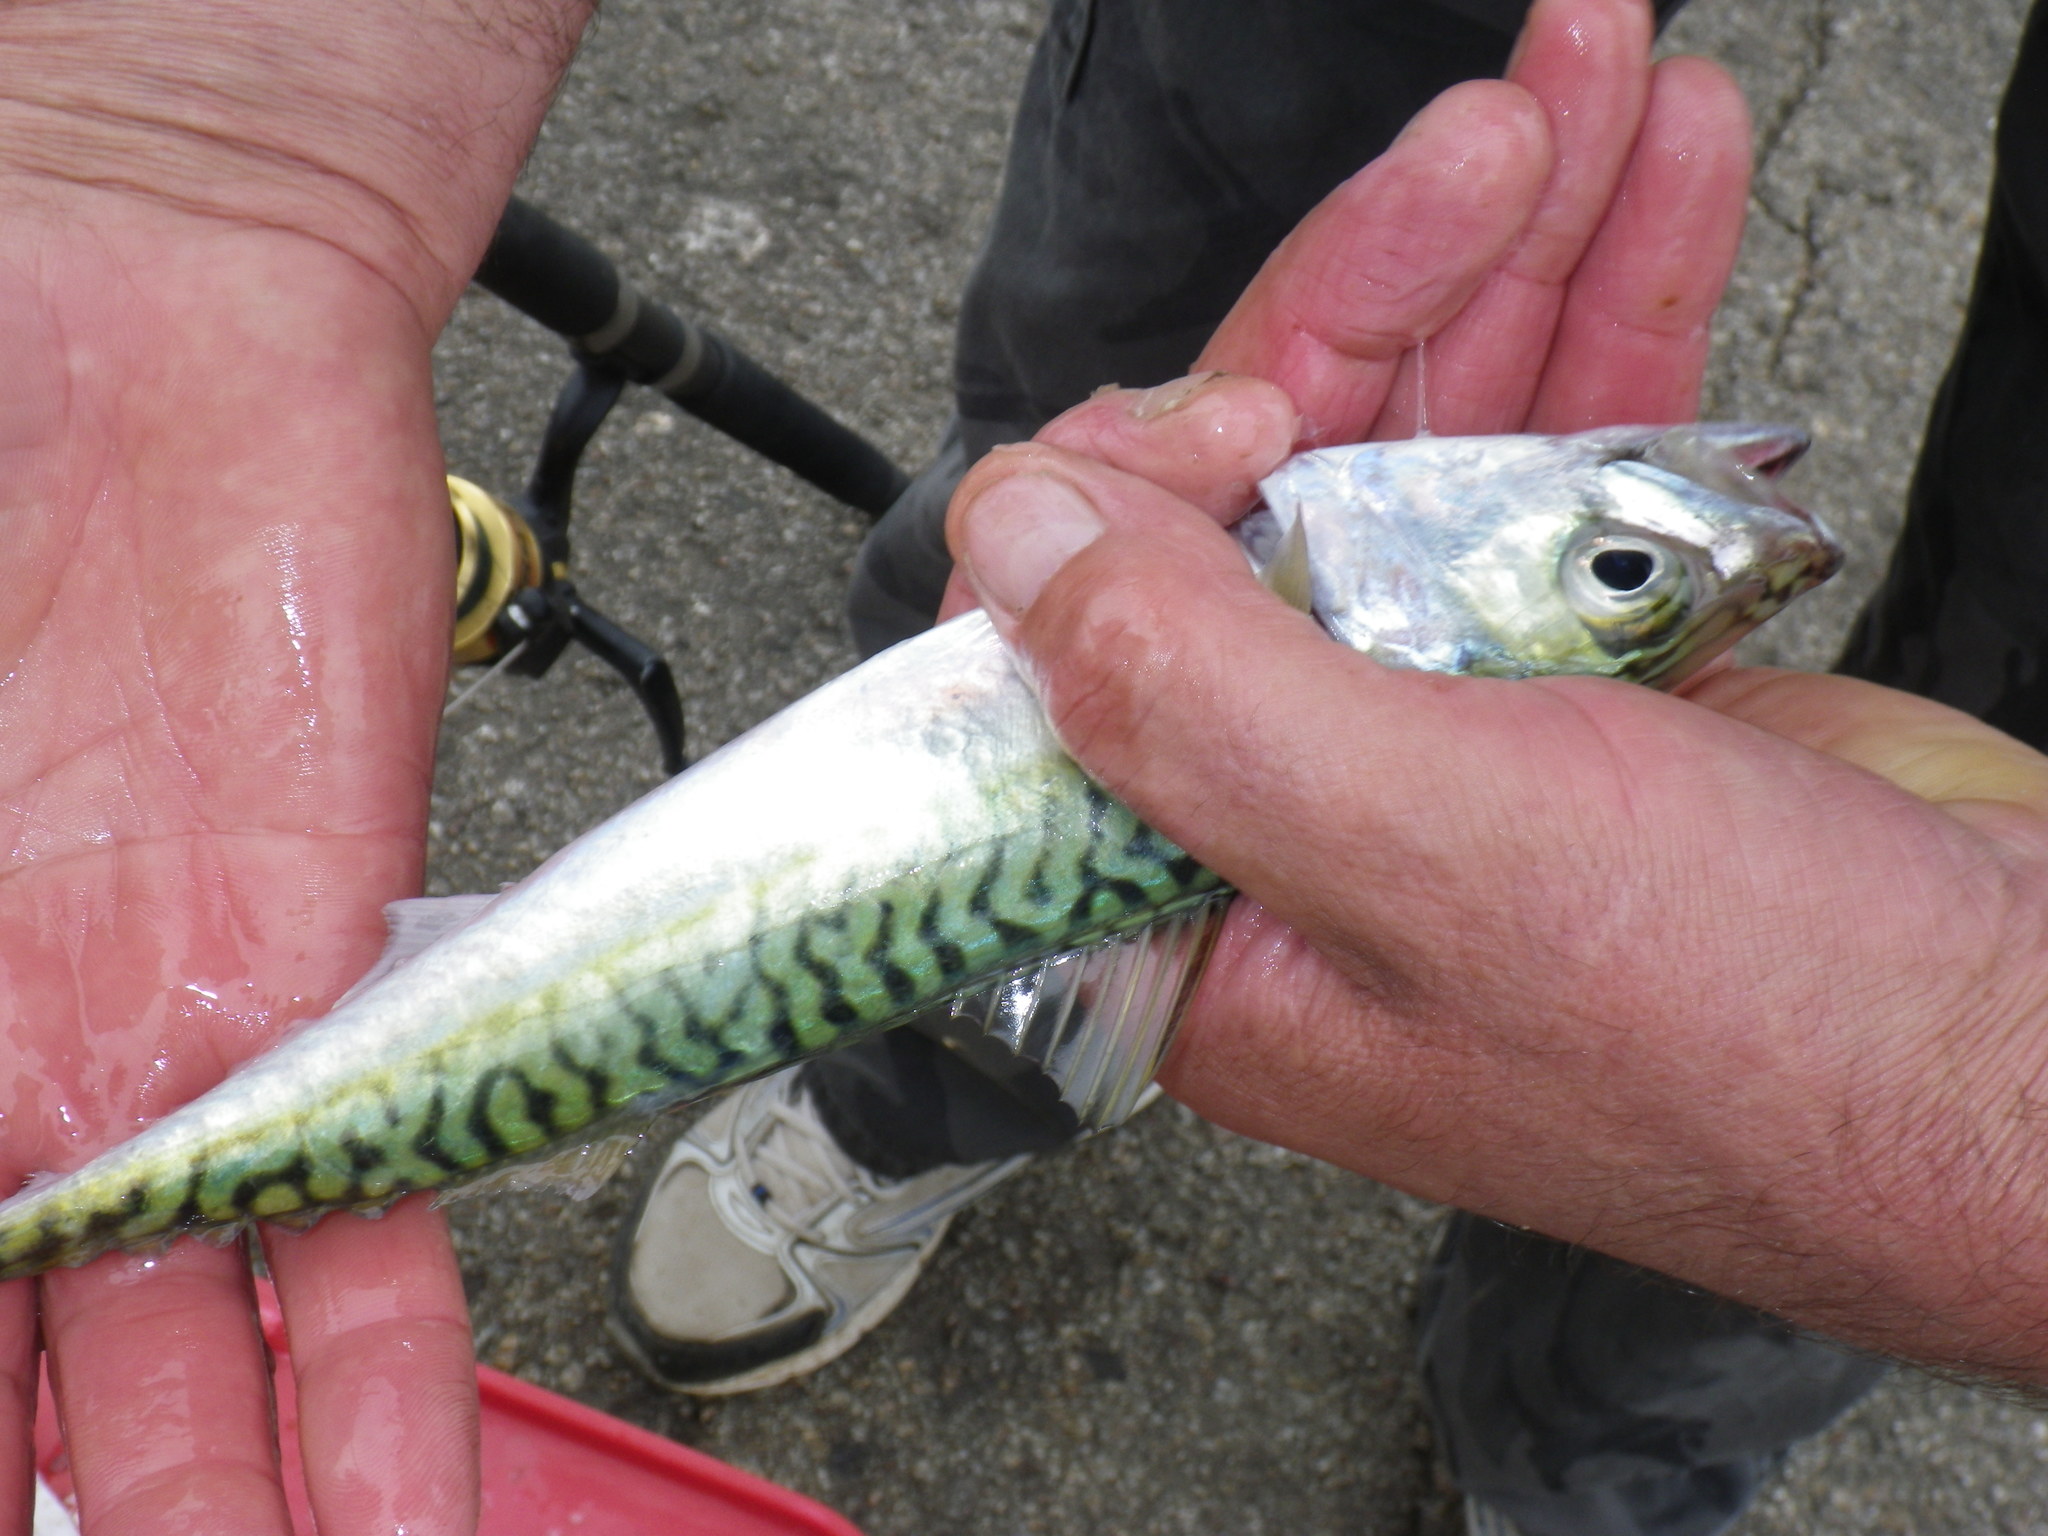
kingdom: Animalia
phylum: Chordata
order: Perciformes
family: Scombridae
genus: Scomber
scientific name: Scomber japonicus
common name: Chub mackerel
